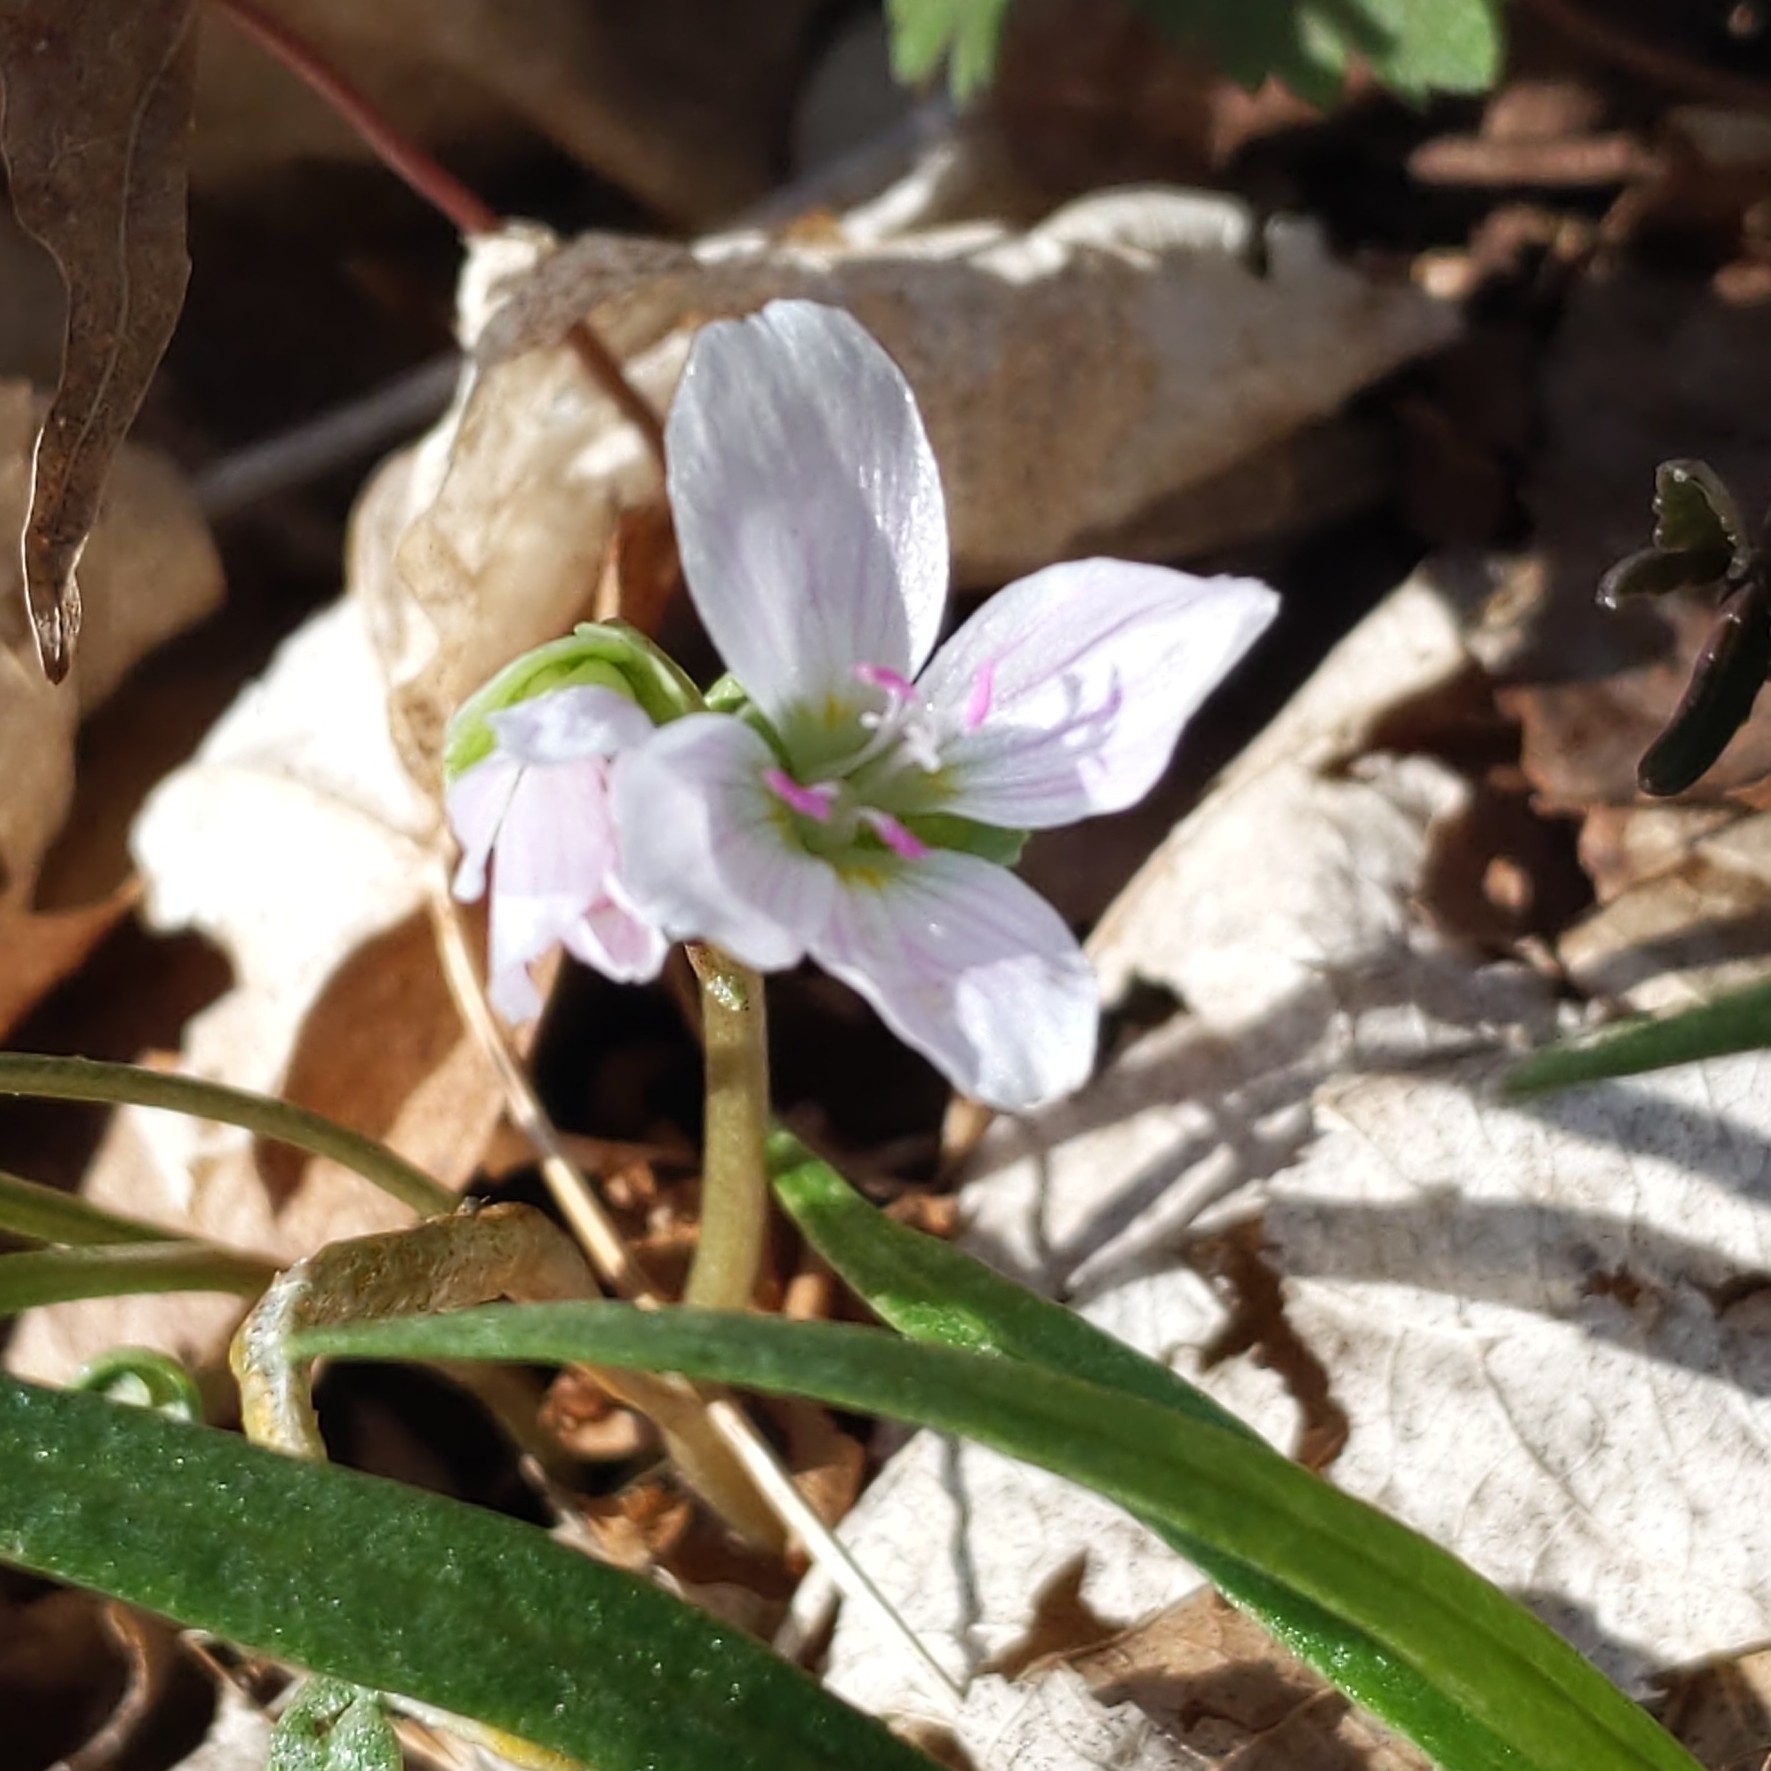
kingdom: Plantae
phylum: Tracheophyta
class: Magnoliopsida
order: Caryophyllales
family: Montiaceae
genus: Claytonia
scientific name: Claytonia virginica
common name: Virginia springbeauty
